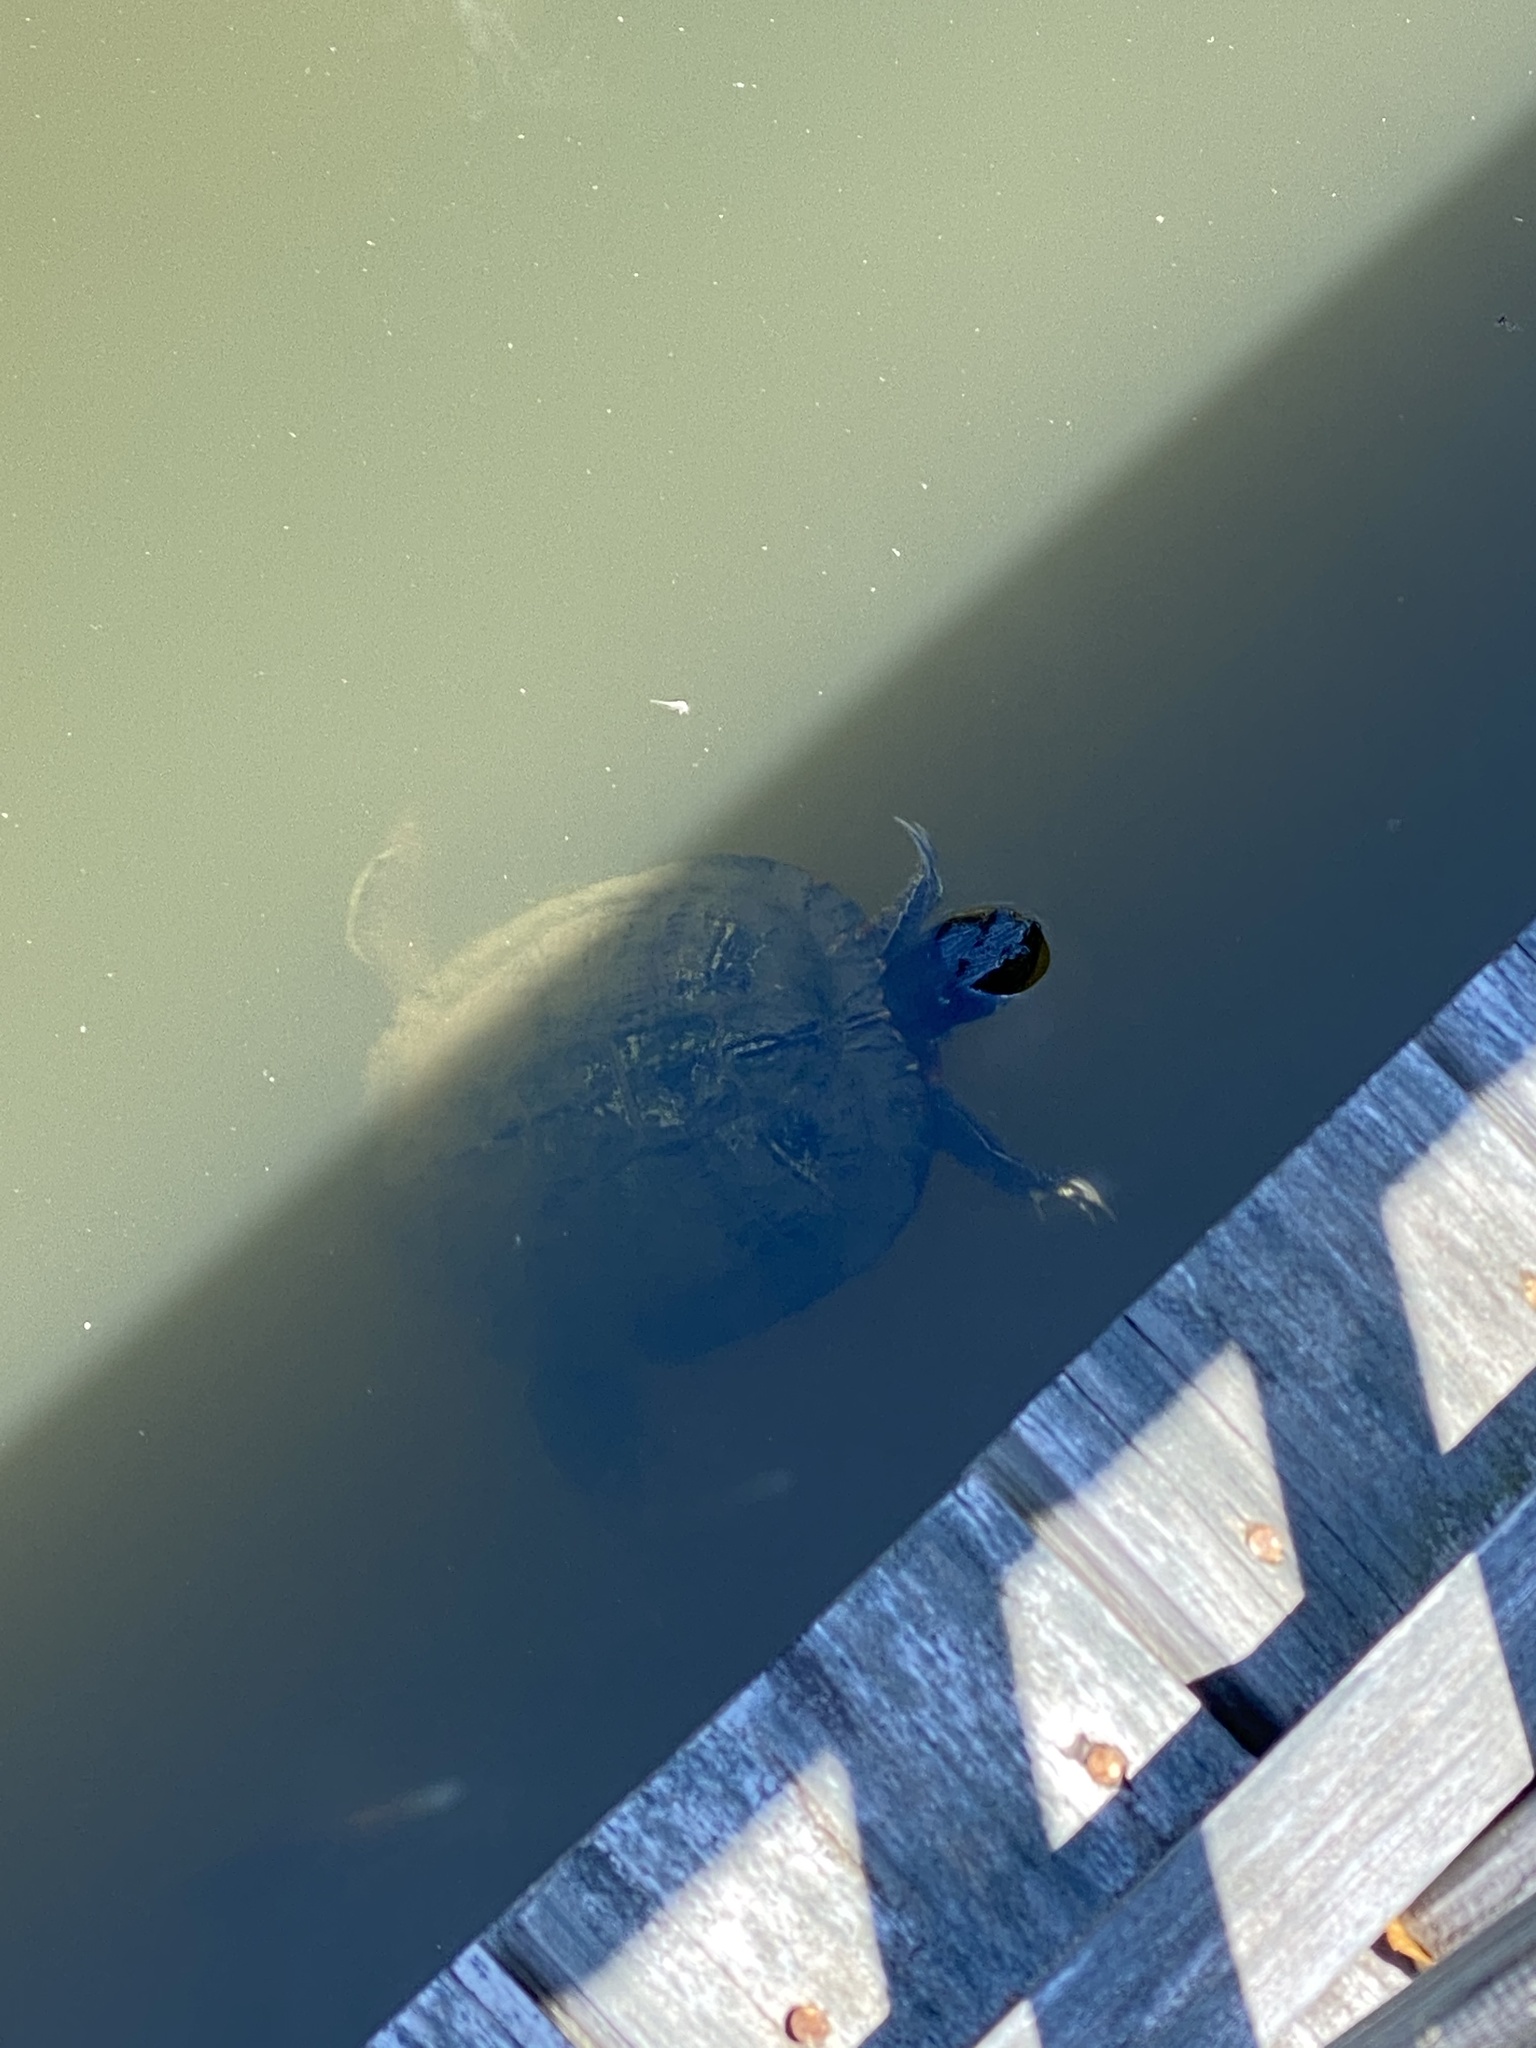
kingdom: Animalia
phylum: Chordata
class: Testudines
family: Emydidae
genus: Trachemys
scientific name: Trachemys scripta
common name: Slider
